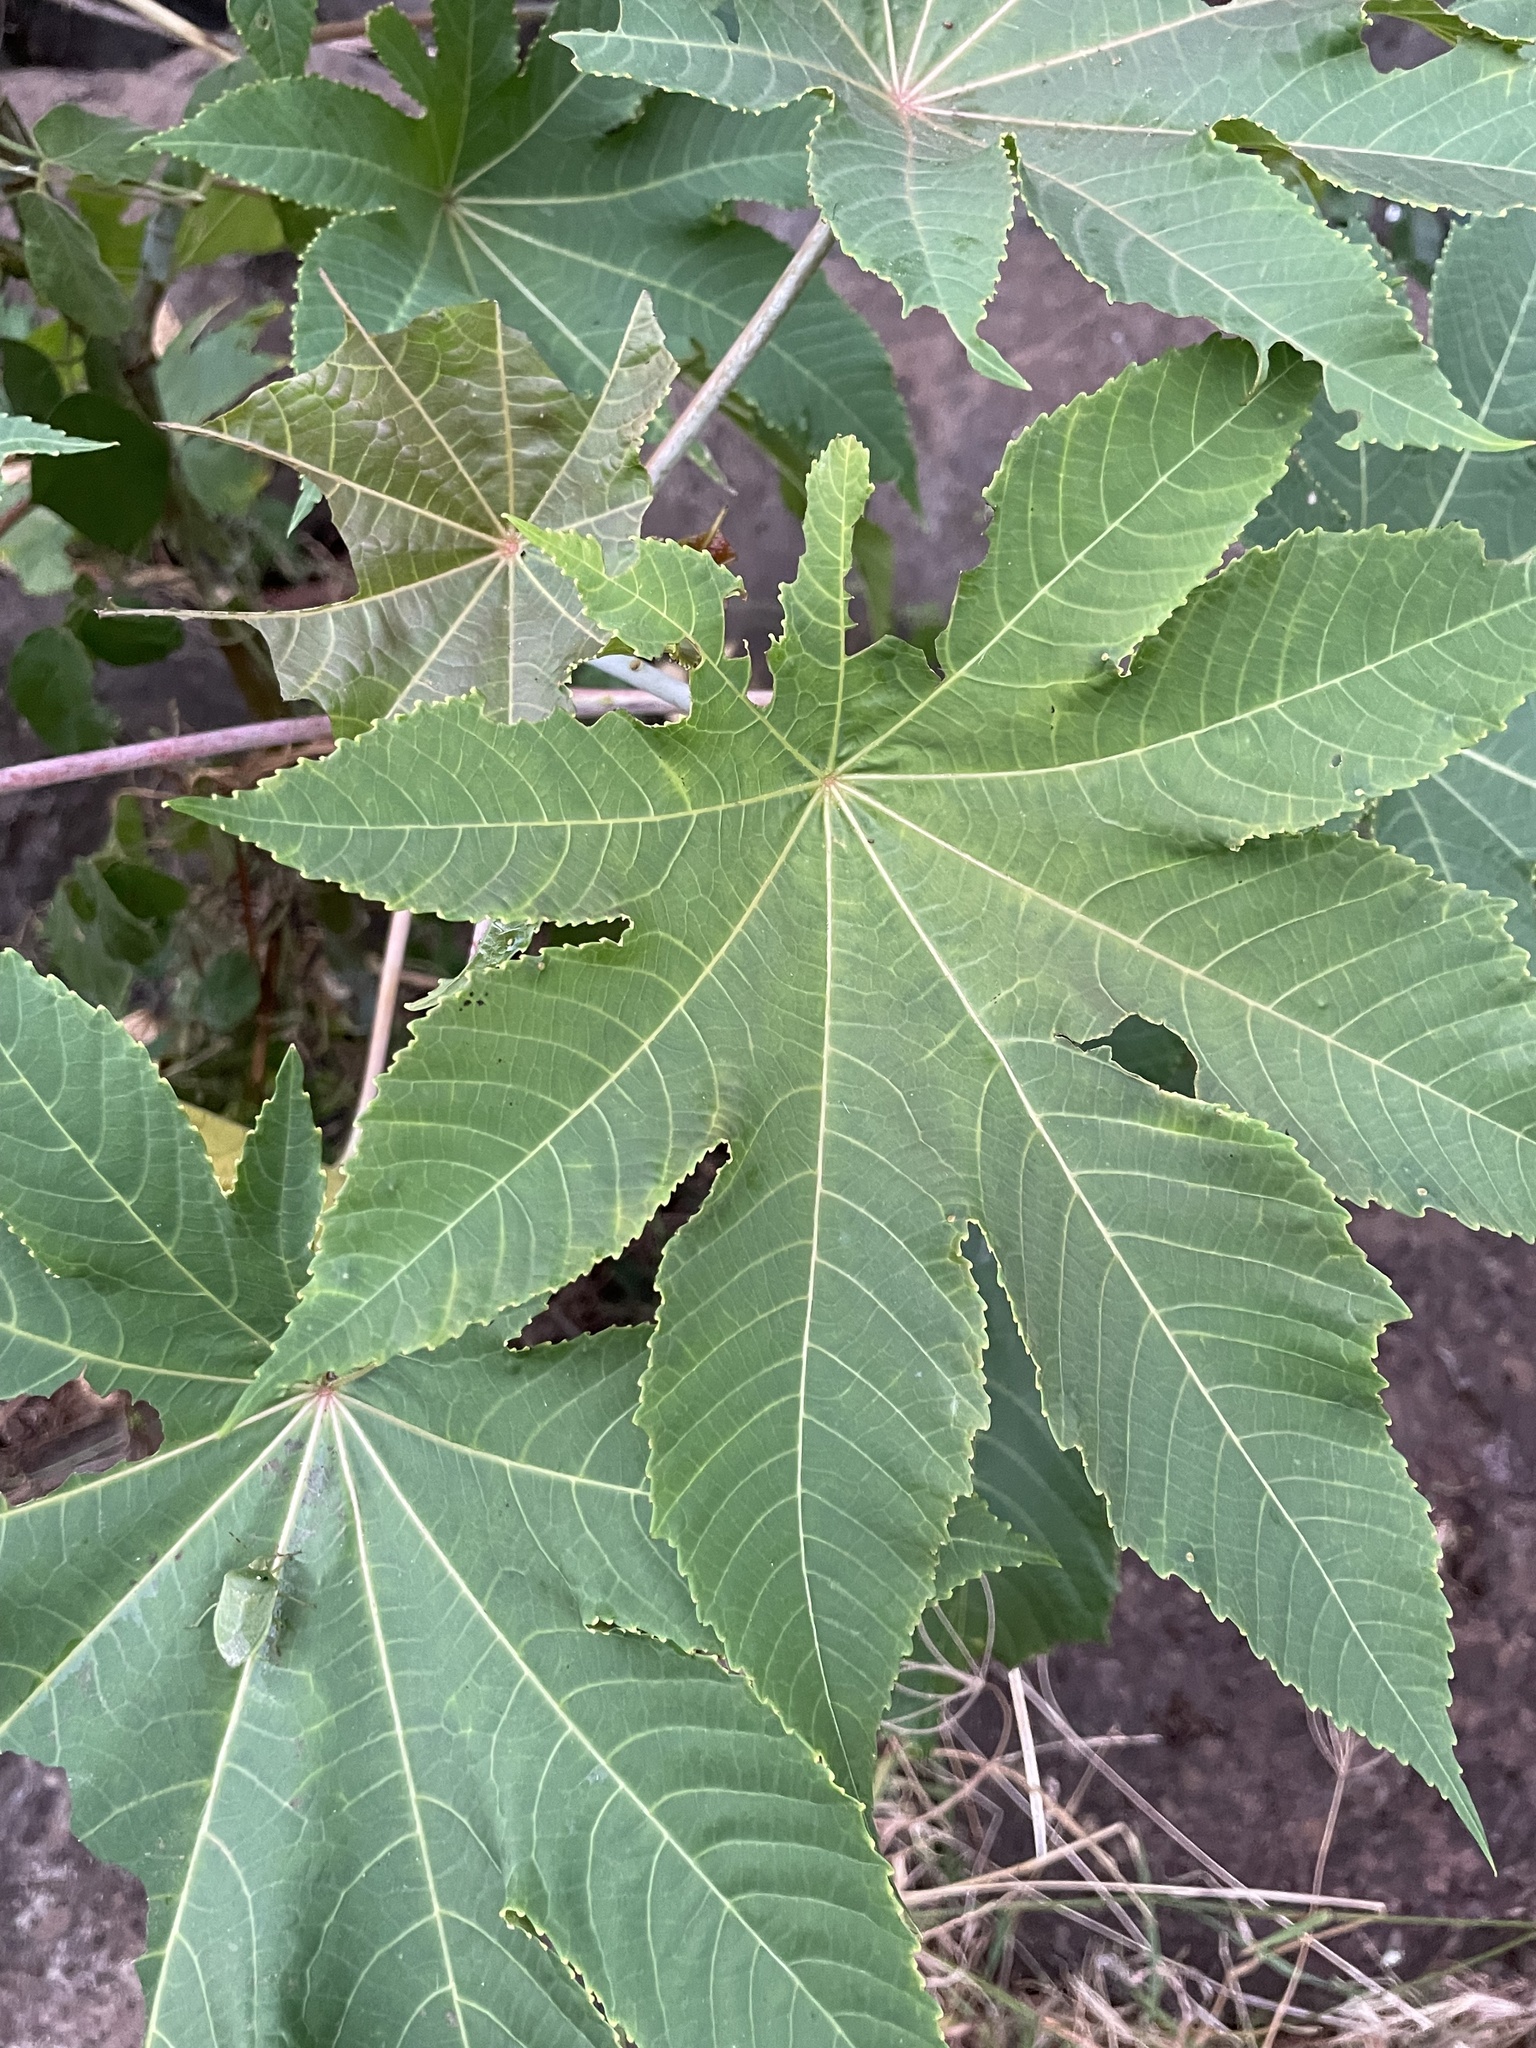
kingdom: Plantae
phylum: Tracheophyta
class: Magnoliopsida
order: Malpighiales
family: Euphorbiaceae
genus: Ricinus
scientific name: Ricinus communis
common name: Castor-oil-plant
